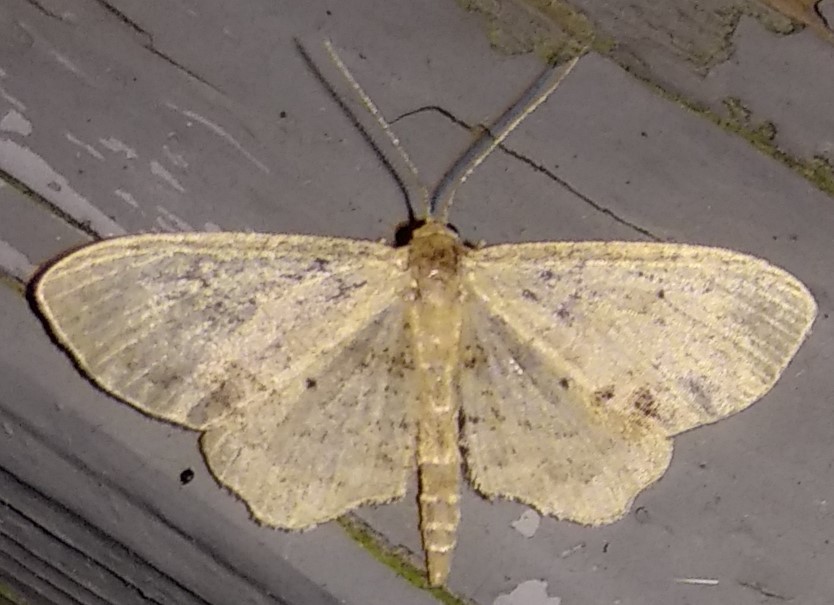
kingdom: Animalia
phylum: Arthropoda
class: Insecta
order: Lepidoptera
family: Geometridae
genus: Idaea
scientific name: Idaea dimidiata
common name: Single-dotted wave
